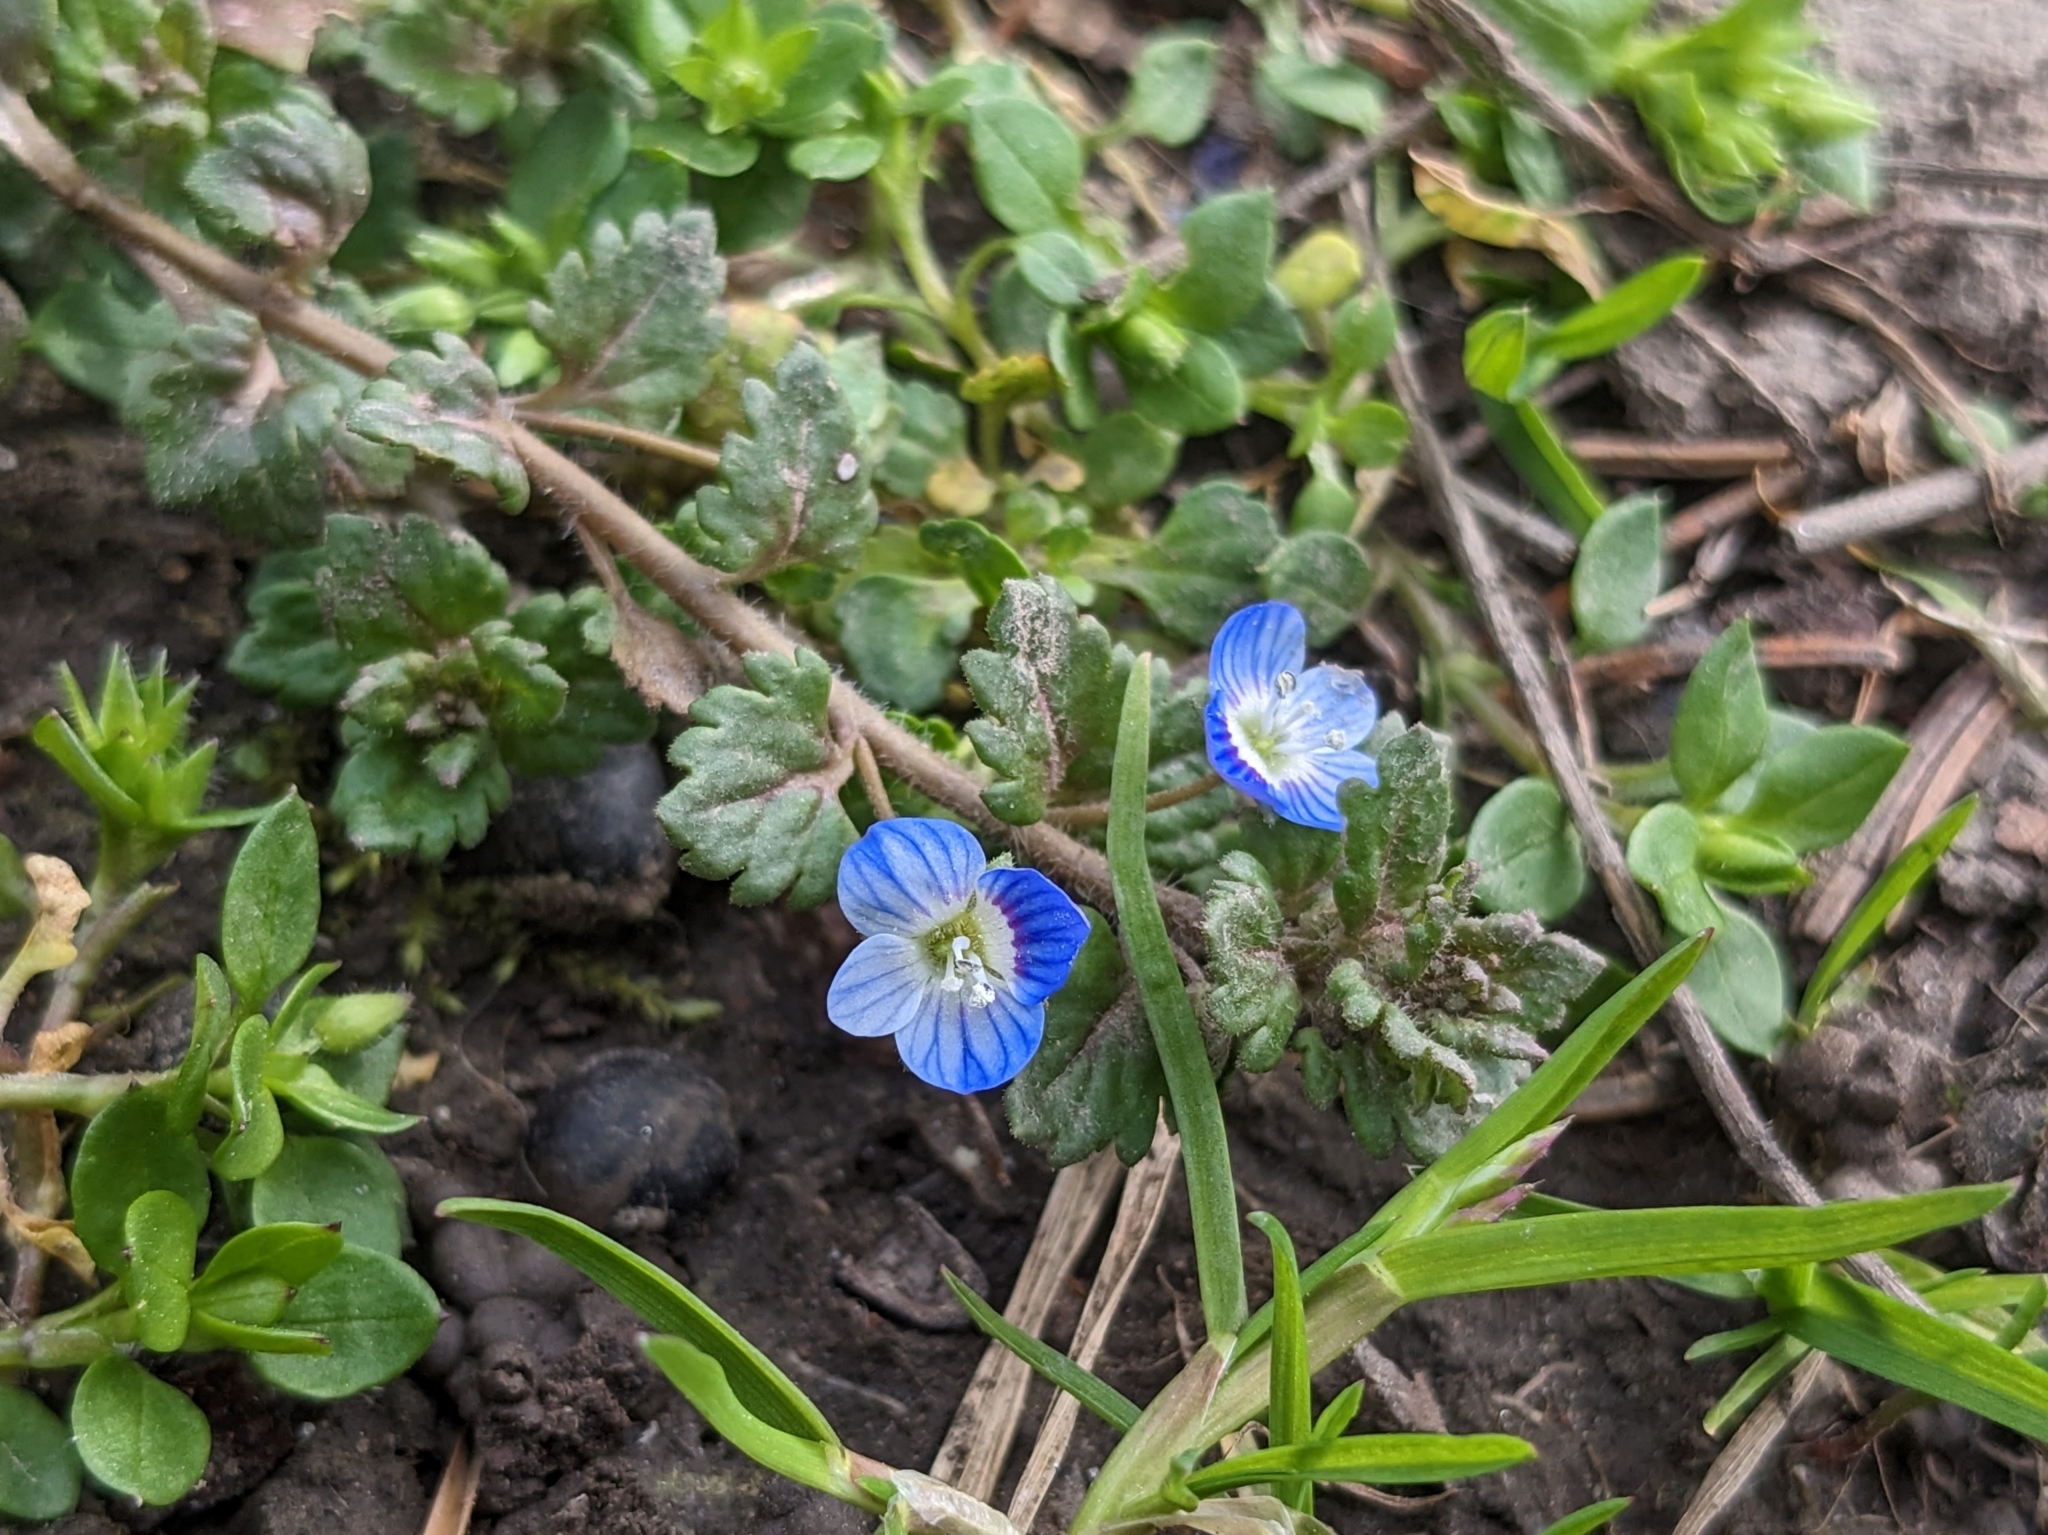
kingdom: Plantae
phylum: Tracheophyta
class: Magnoliopsida
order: Lamiales
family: Plantaginaceae
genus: Veronica
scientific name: Veronica polita
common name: Grey field-speedwell
